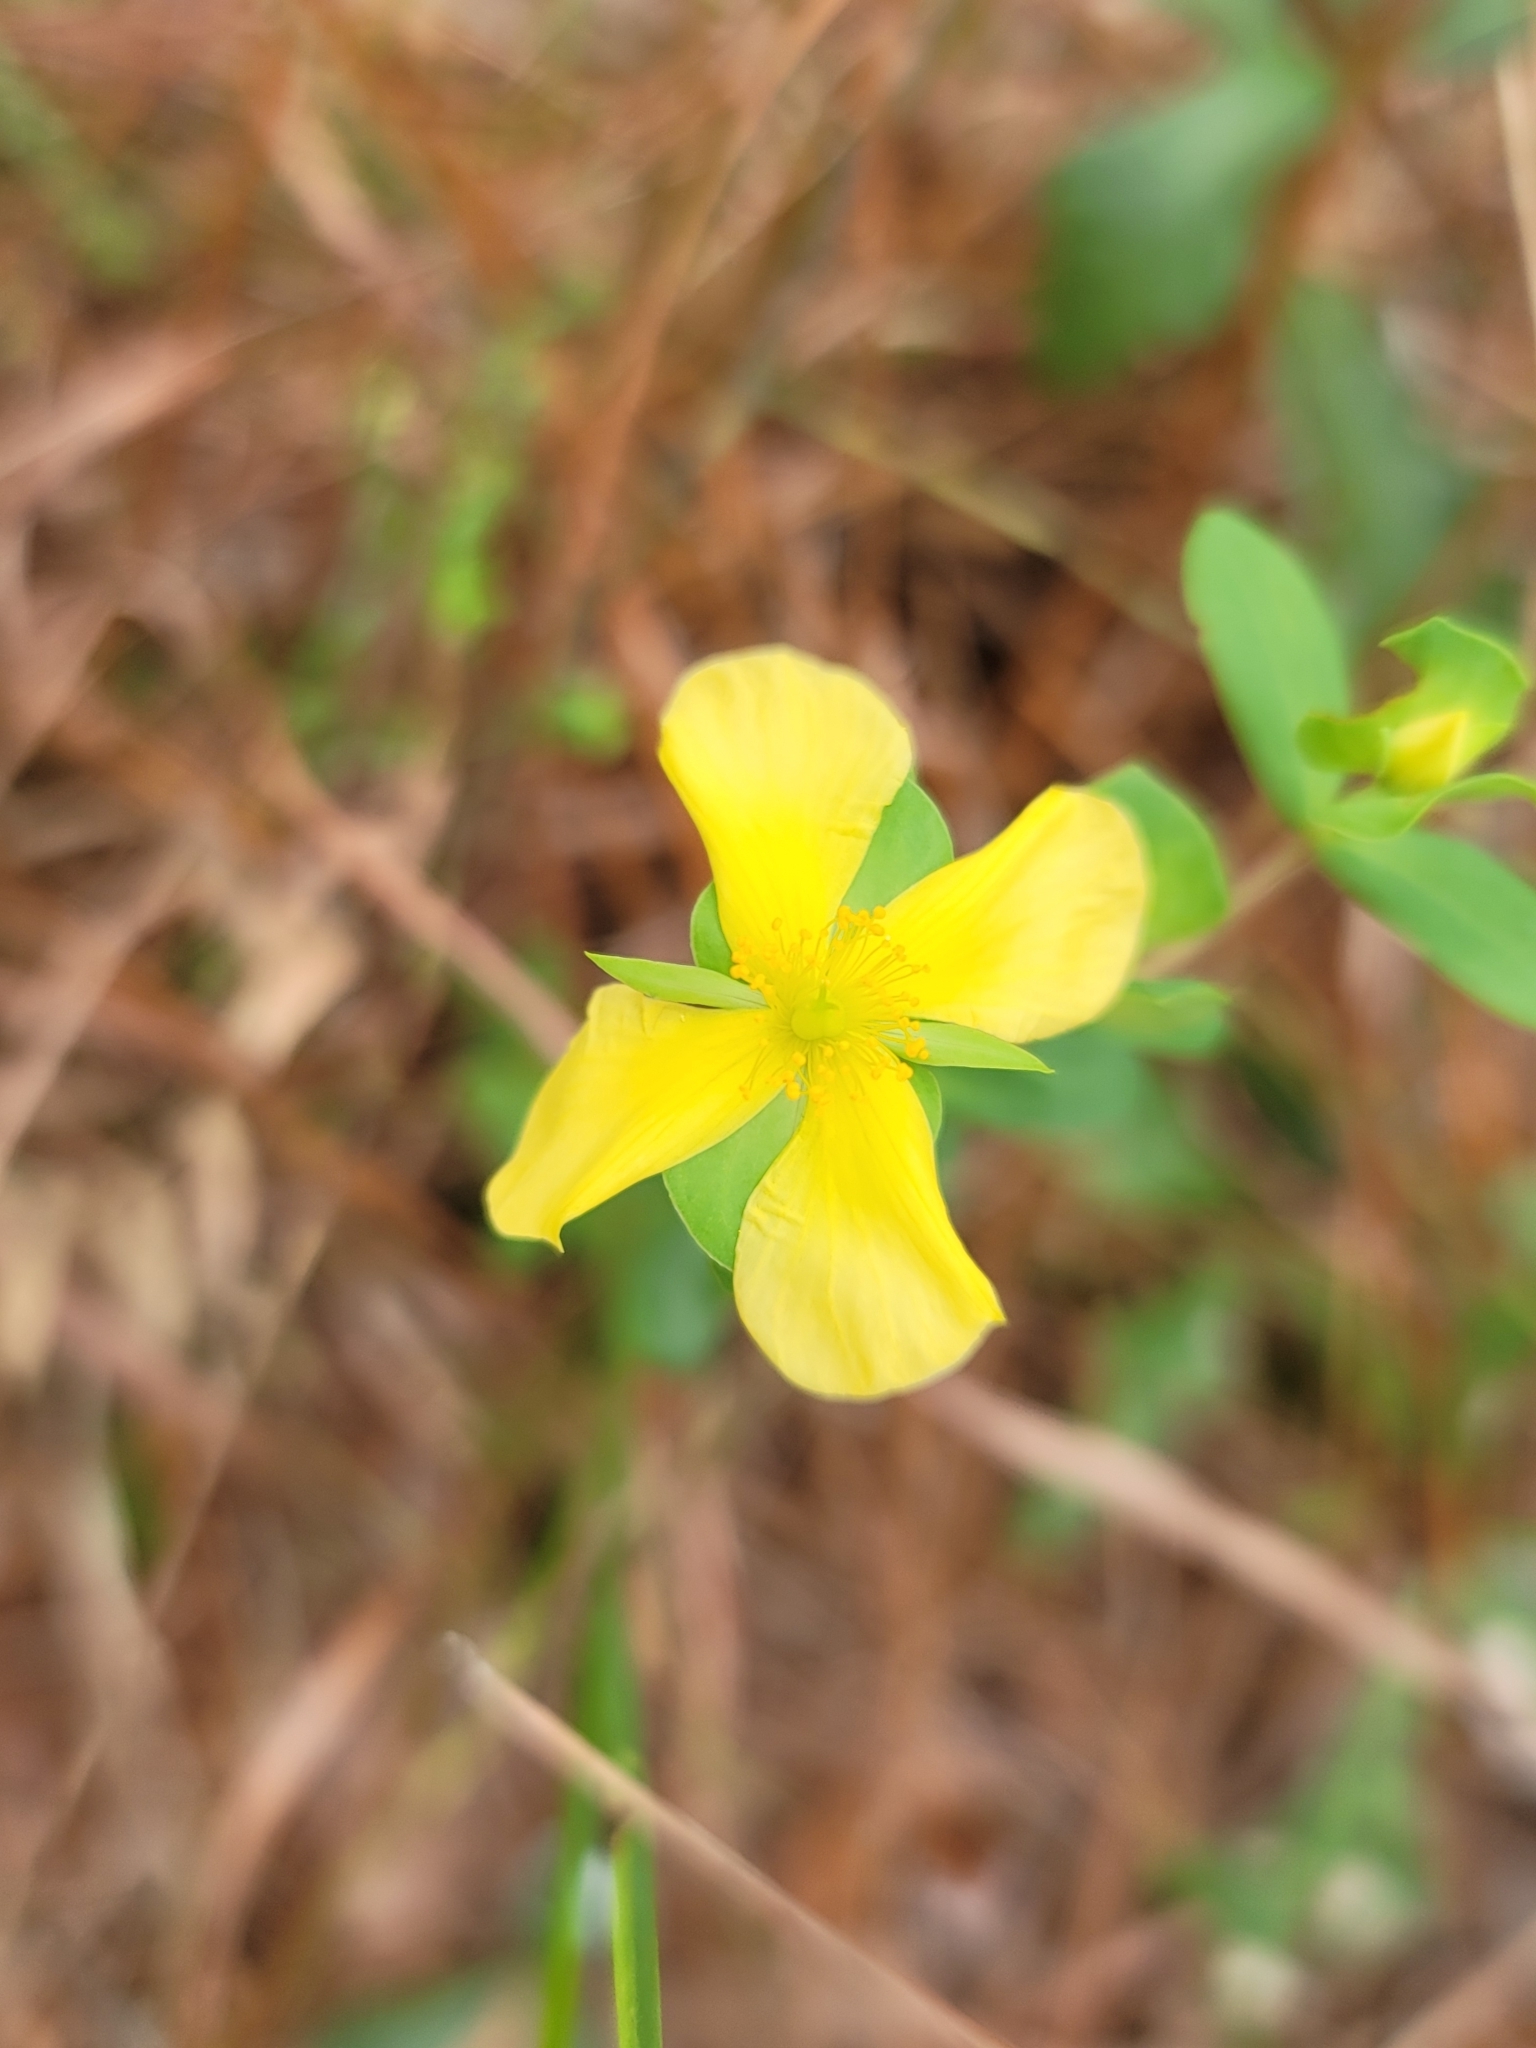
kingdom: Plantae
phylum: Tracheophyta
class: Magnoliopsida
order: Malpighiales
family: Hypericaceae
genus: Hypericum
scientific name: Hypericum crux-andreae
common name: St.-peter's-wort
